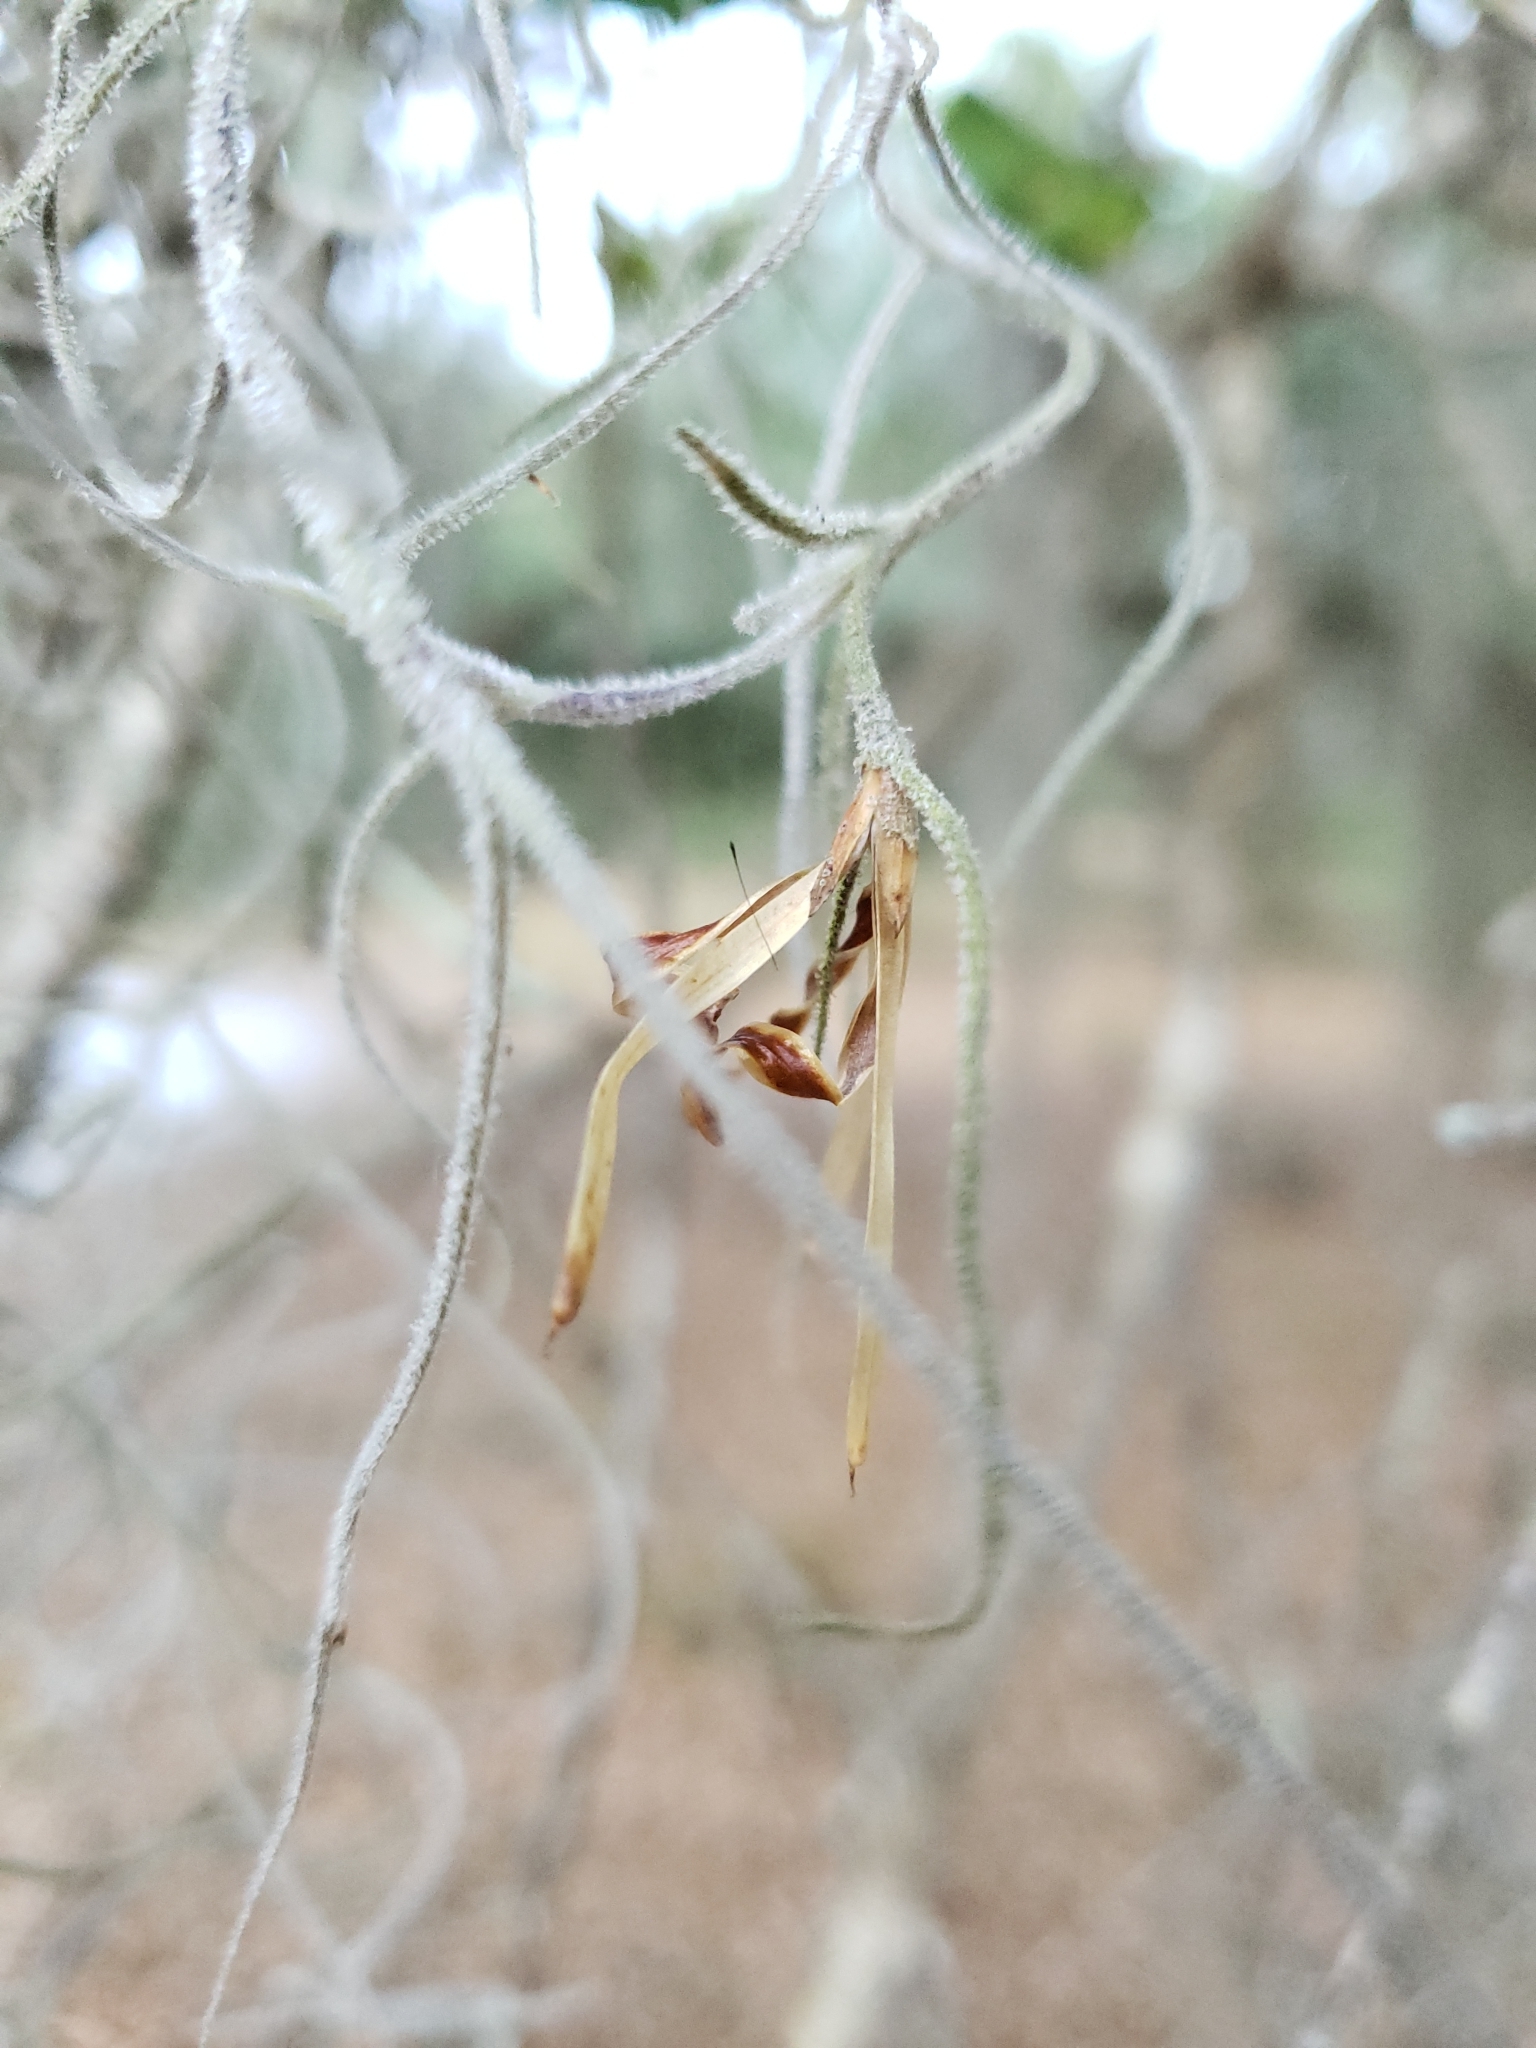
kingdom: Plantae
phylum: Tracheophyta
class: Liliopsida
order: Poales
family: Bromeliaceae
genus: Tillandsia
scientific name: Tillandsia usneoides
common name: Spanish moss
